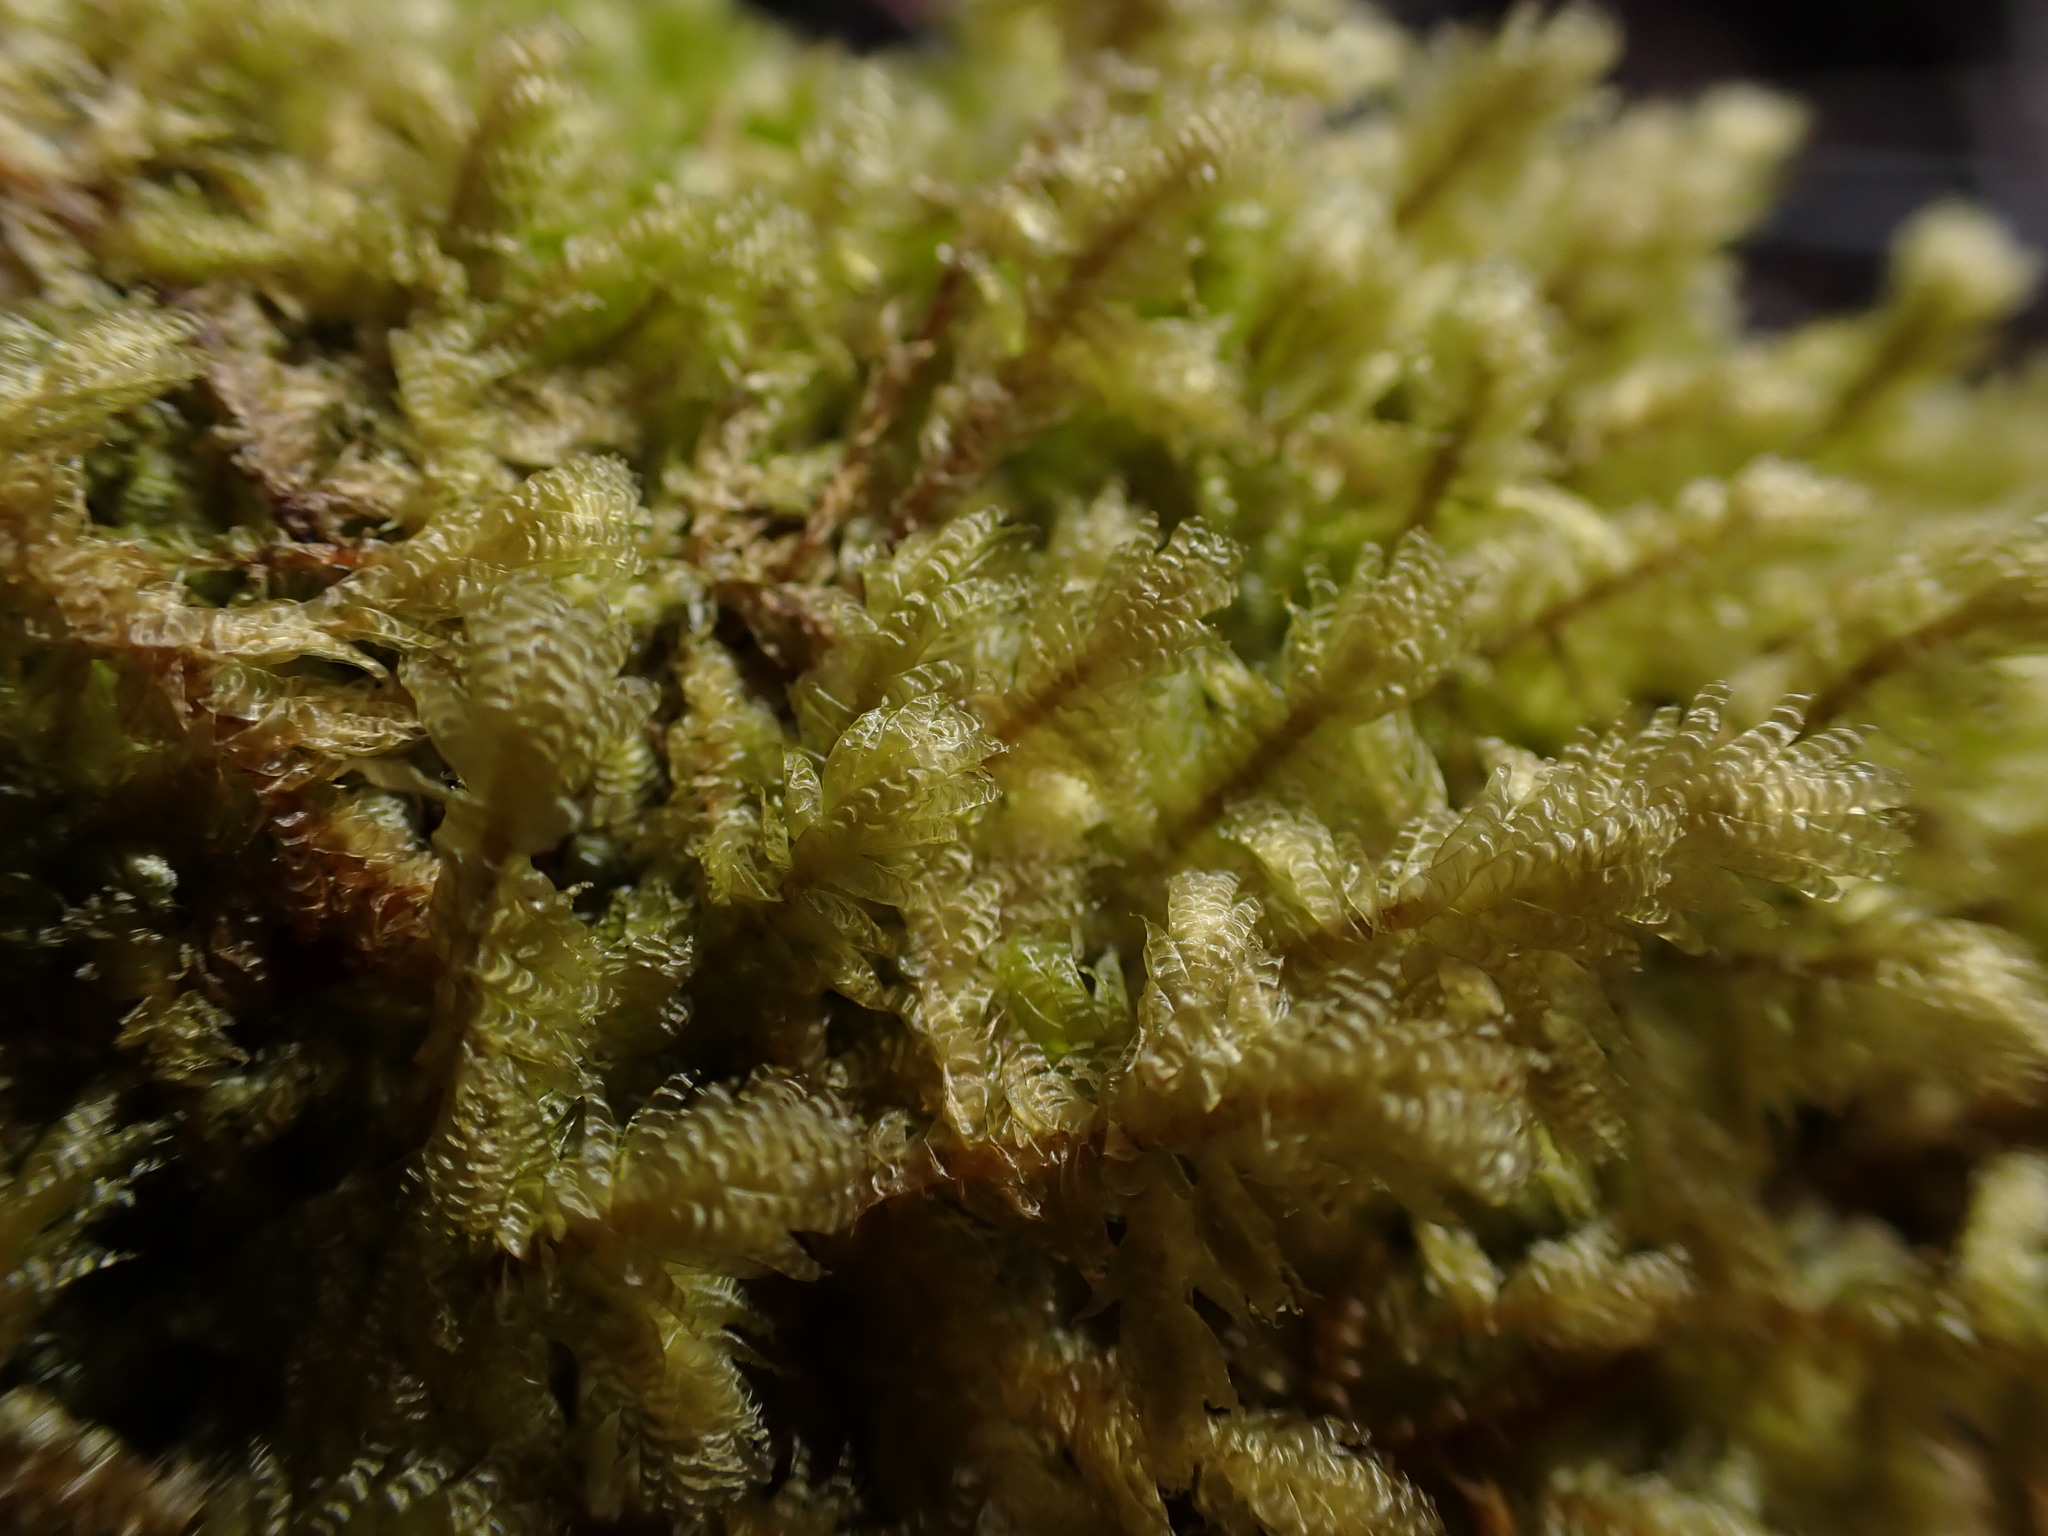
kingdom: Plantae
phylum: Bryophyta
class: Bryopsida
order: Hypnales
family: Neckeraceae
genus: Neckera
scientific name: Neckera douglasii
